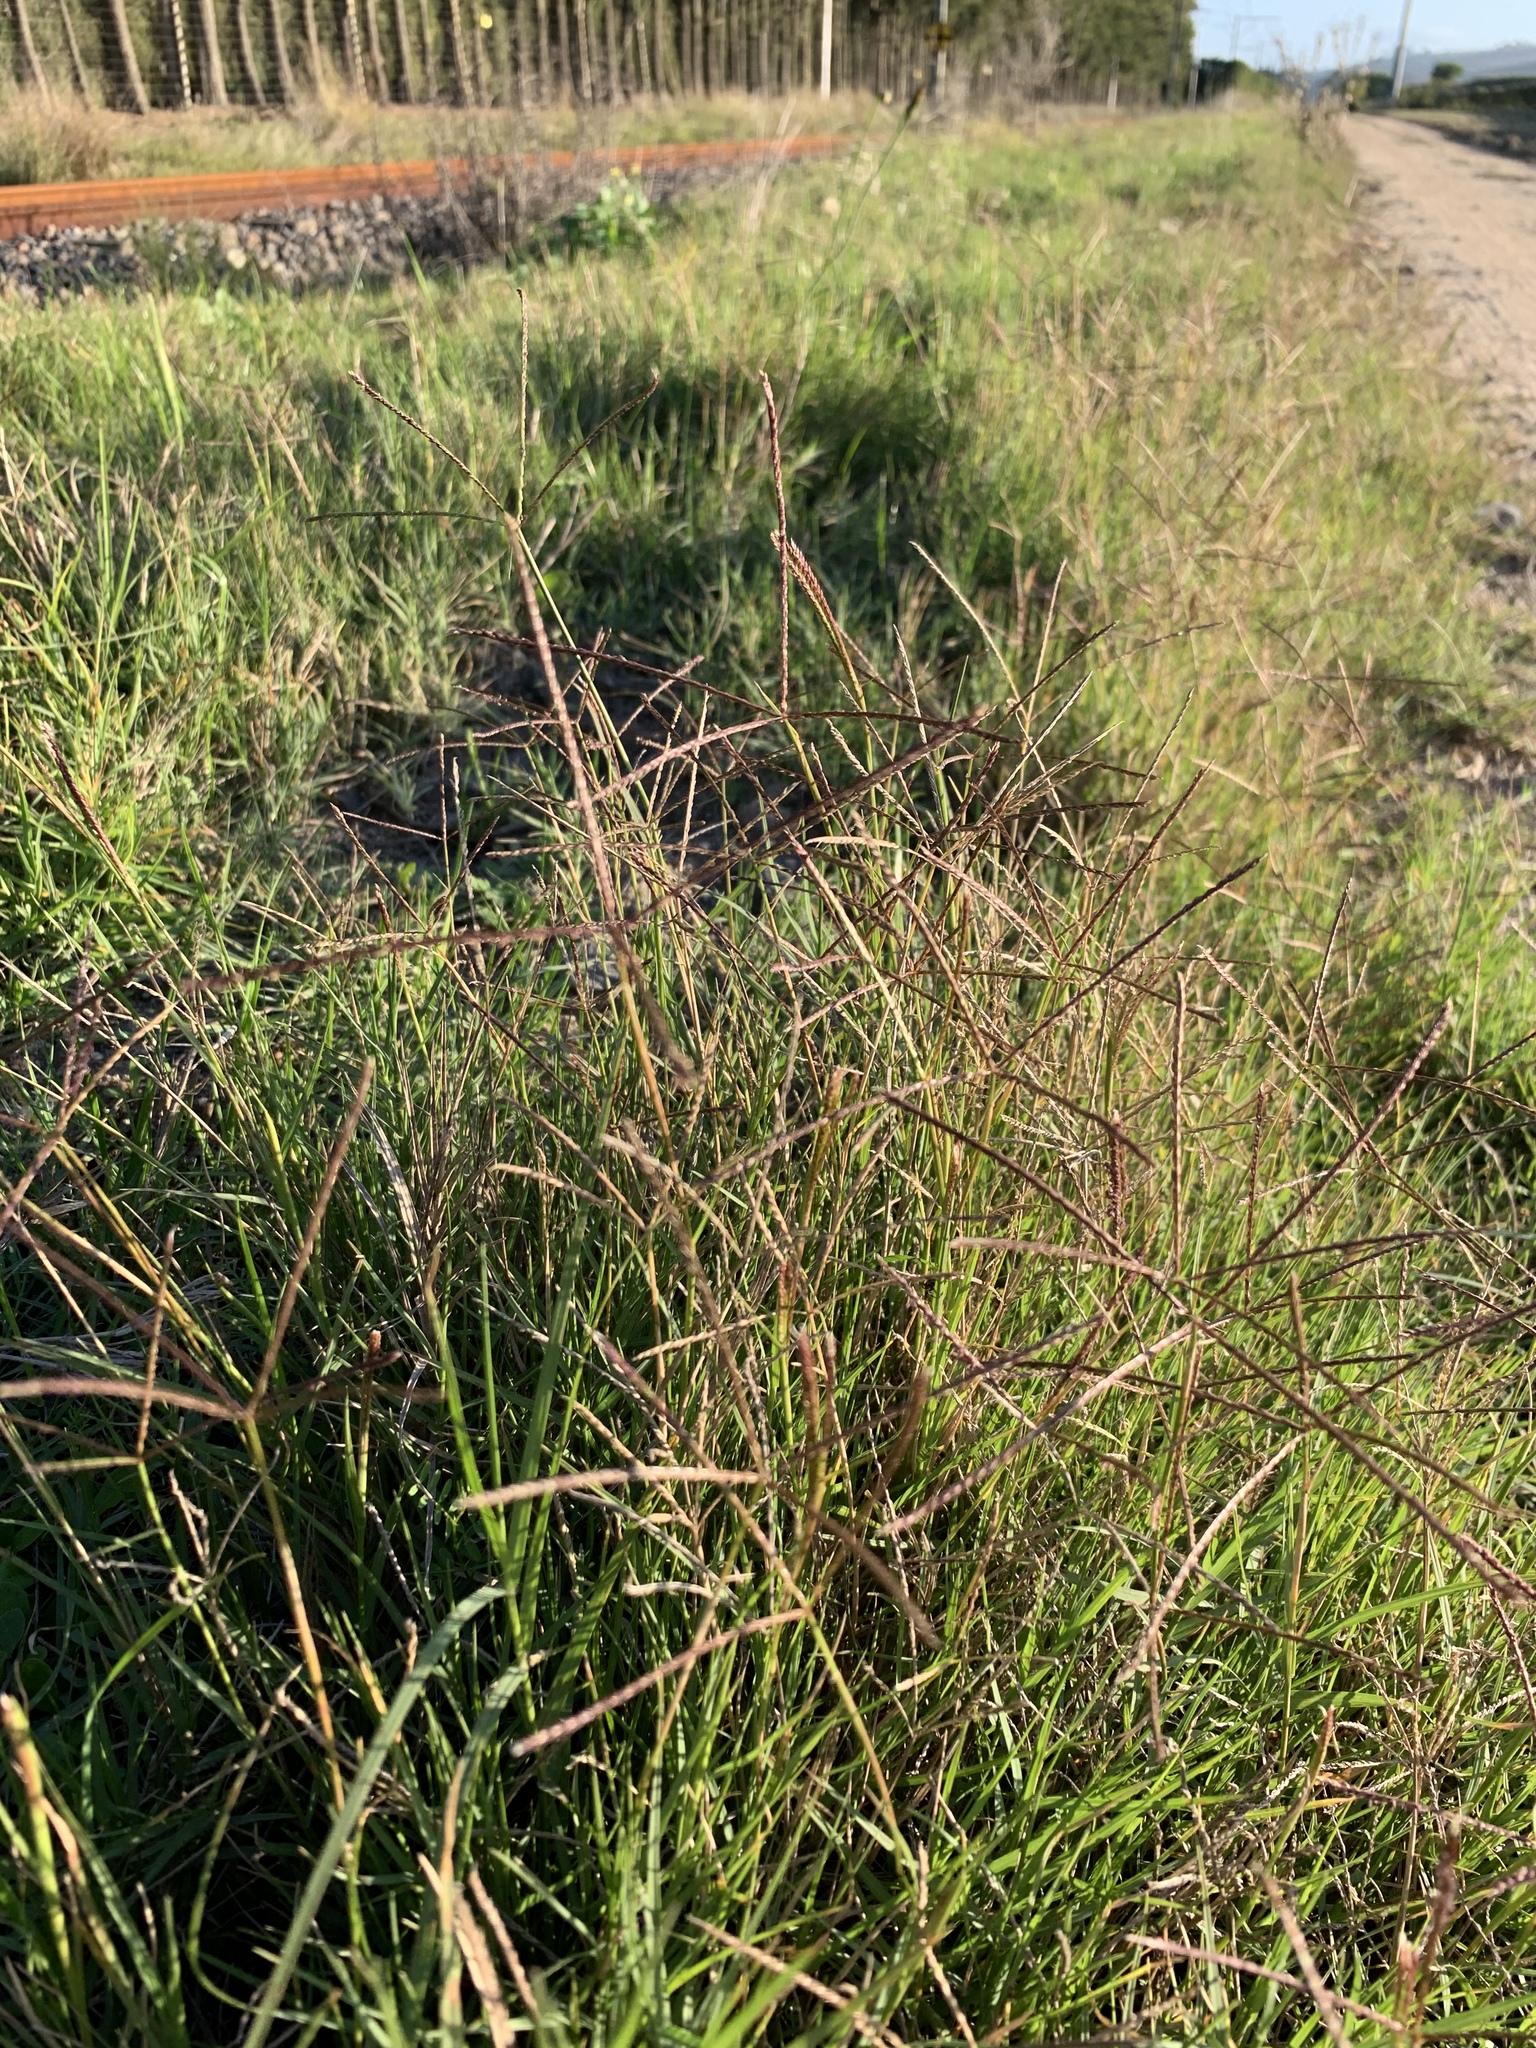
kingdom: Plantae
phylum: Tracheophyta
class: Liliopsida
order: Poales
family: Poaceae
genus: Cynodon
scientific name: Cynodon dactylon
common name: Bermuda grass
